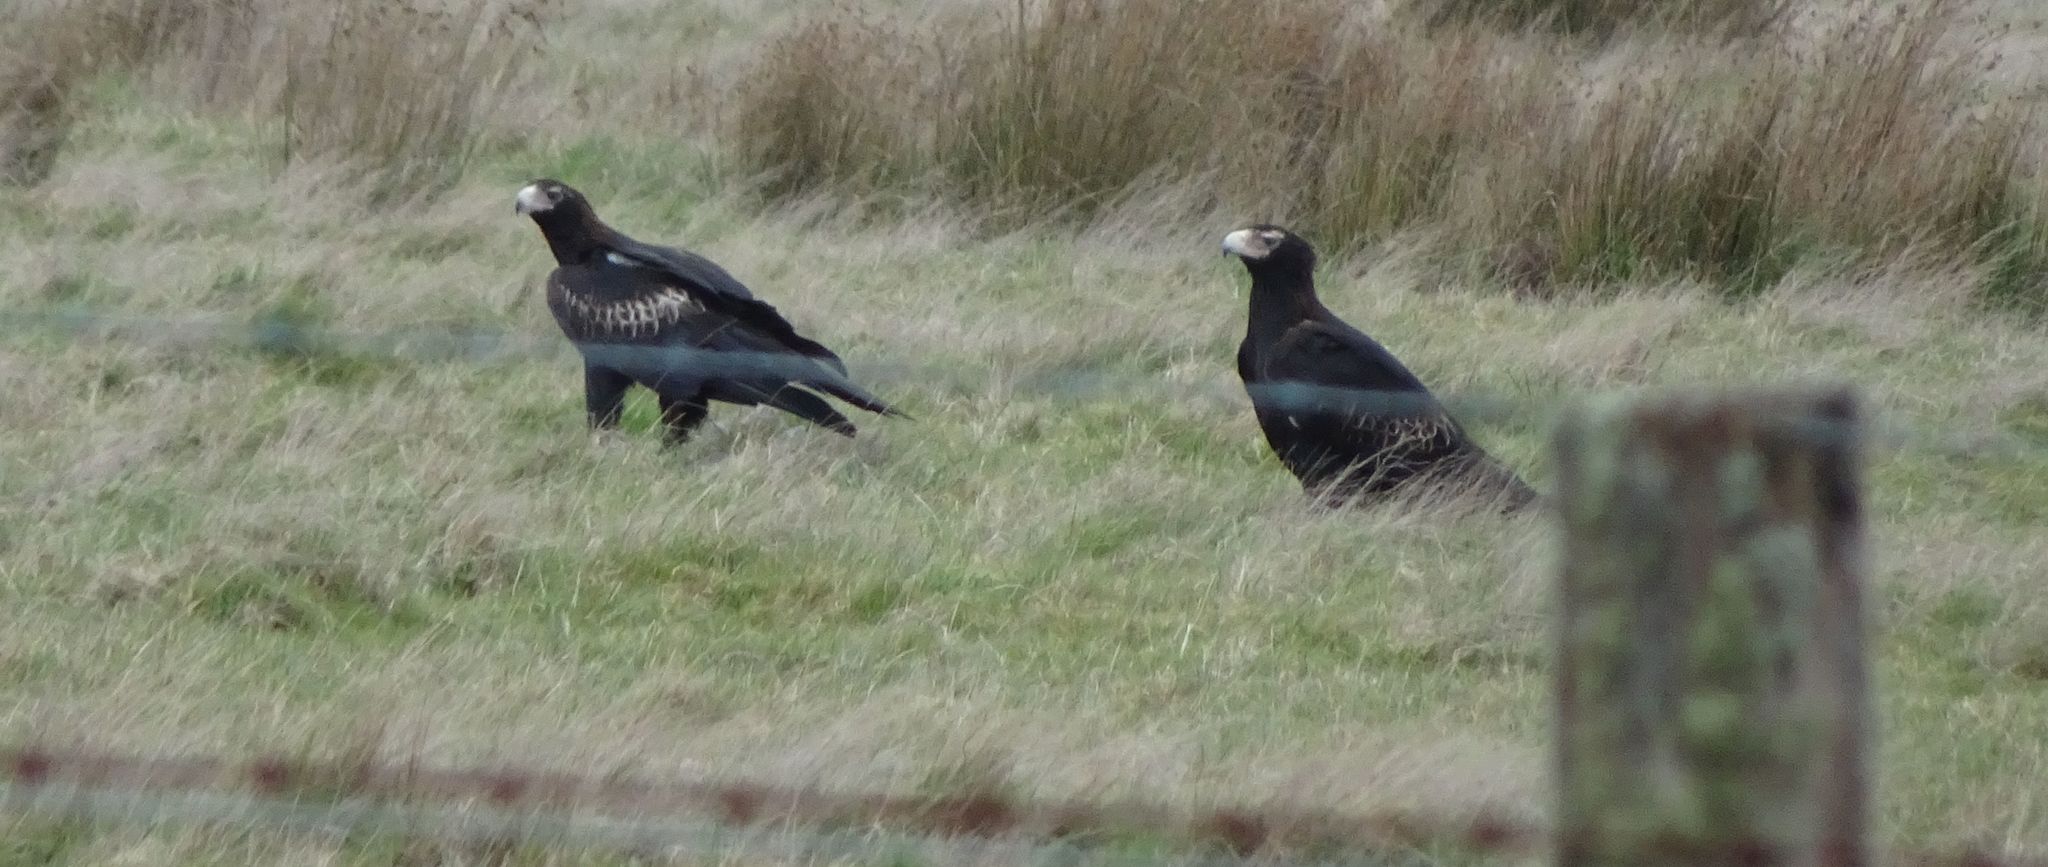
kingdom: Animalia
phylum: Chordata
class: Aves
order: Accipitriformes
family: Accipitridae
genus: Aquila
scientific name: Aquila audax
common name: Wedge-tailed eagle
